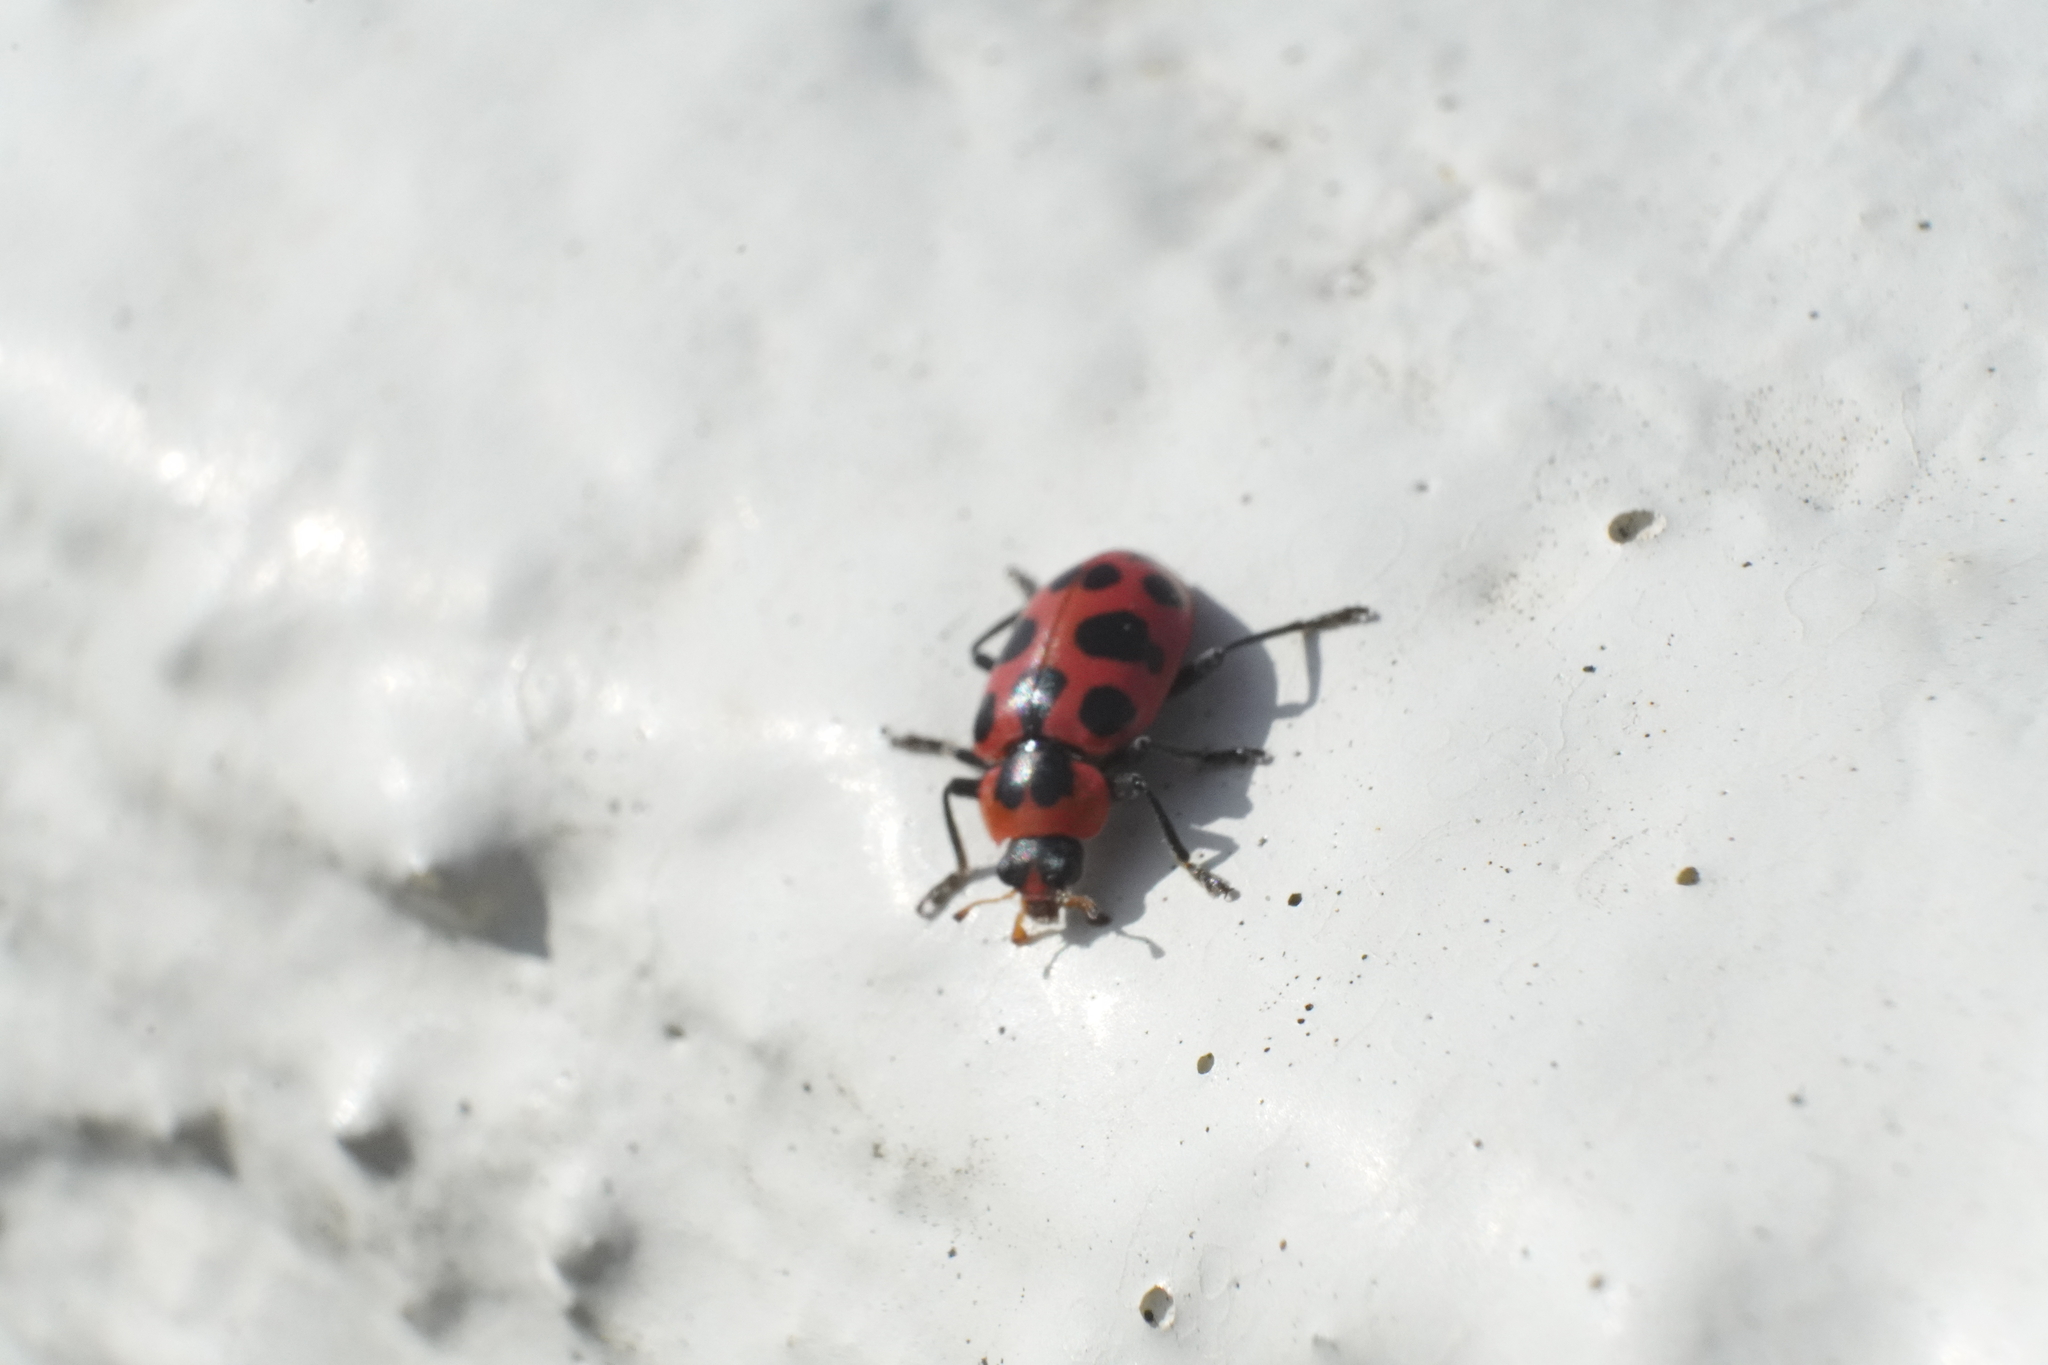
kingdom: Animalia
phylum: Arthropoda
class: Insecta
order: Coleoptera
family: Coccinellidae
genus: Coleomegilla
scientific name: Coleomegilla maculata
